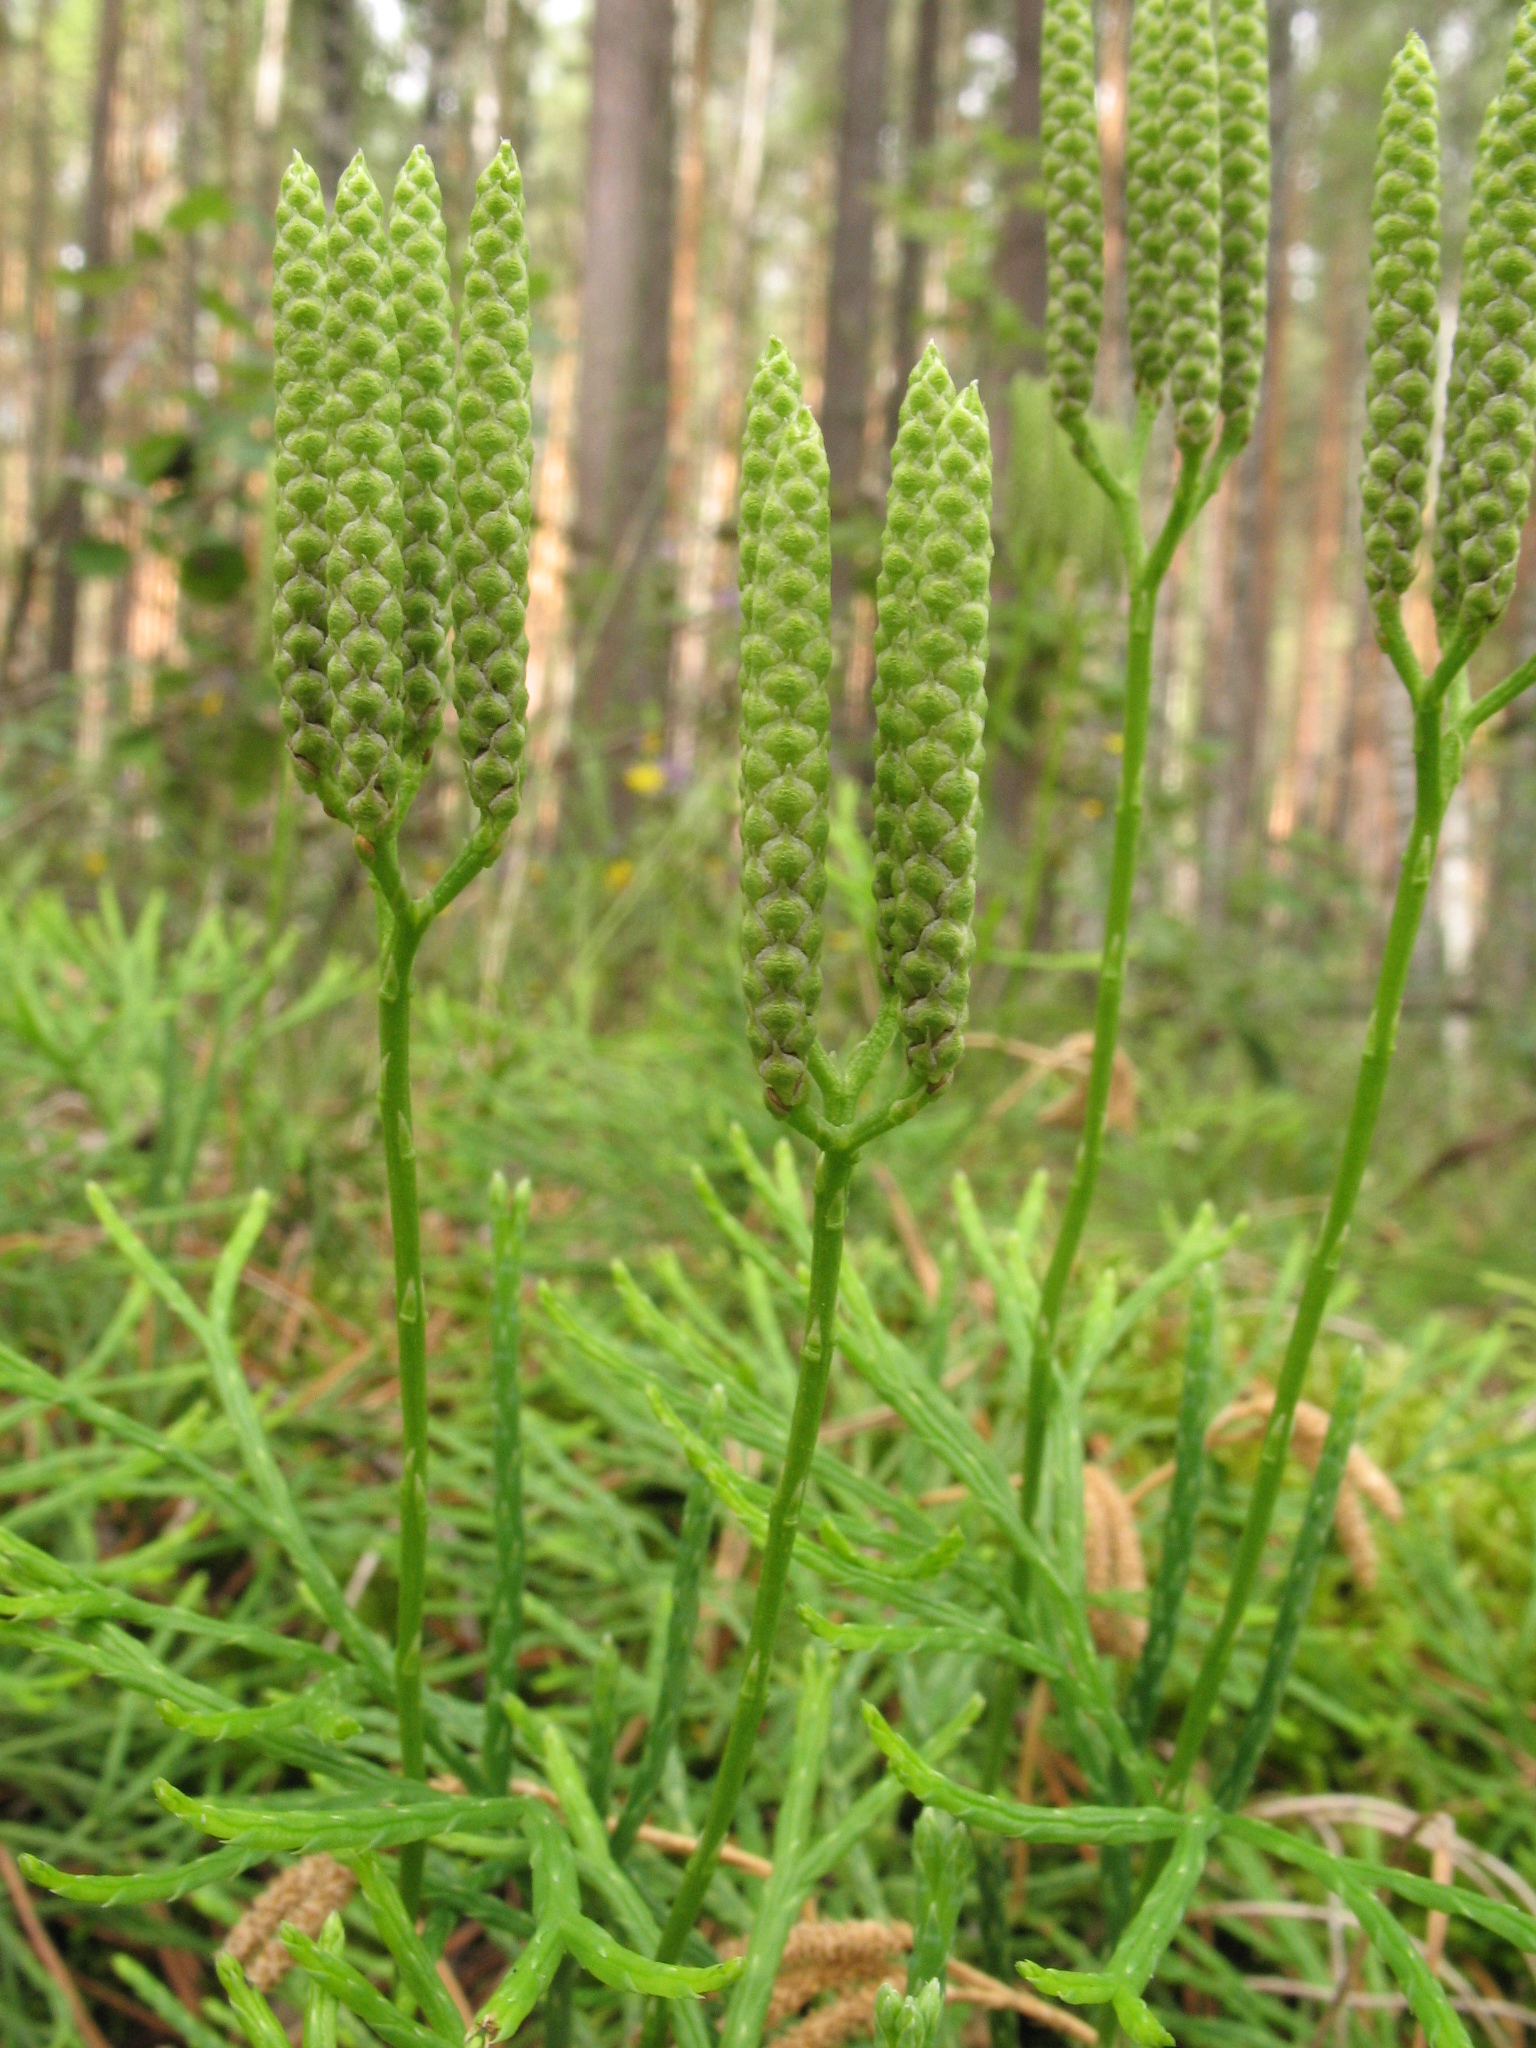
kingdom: Plantae
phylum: Tracheophyta
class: Lycopodiopsida
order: Lycopodiales
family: Lycopodiaceae
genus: Diphasiastrum
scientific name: Diphasiastrum complanatum
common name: Northern running-pine
